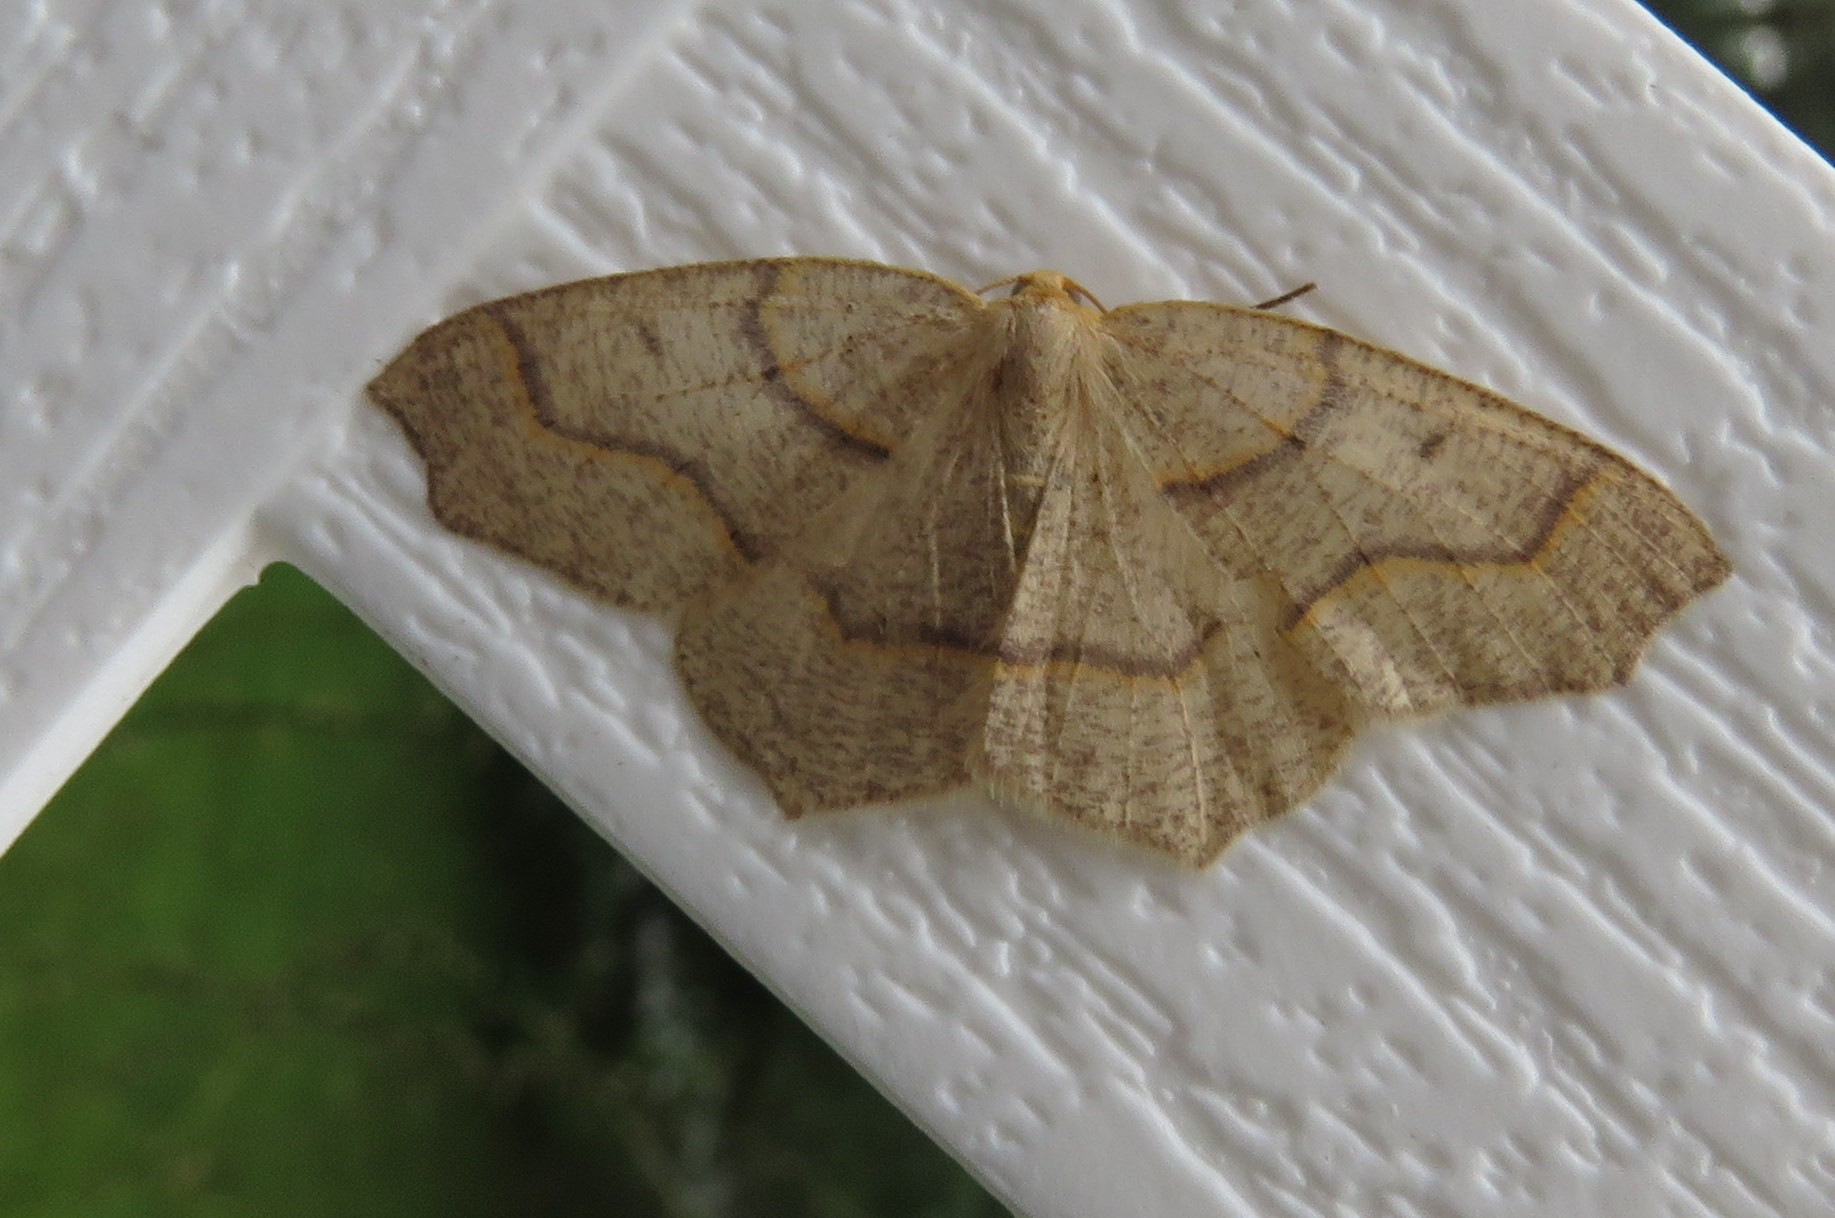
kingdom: Animalia
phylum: Arthropoda
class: Insecta
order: Lepidoptera
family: Geometridae
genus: Lambdina
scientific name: Lambdina fiscellaria
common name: Hemlock looper
